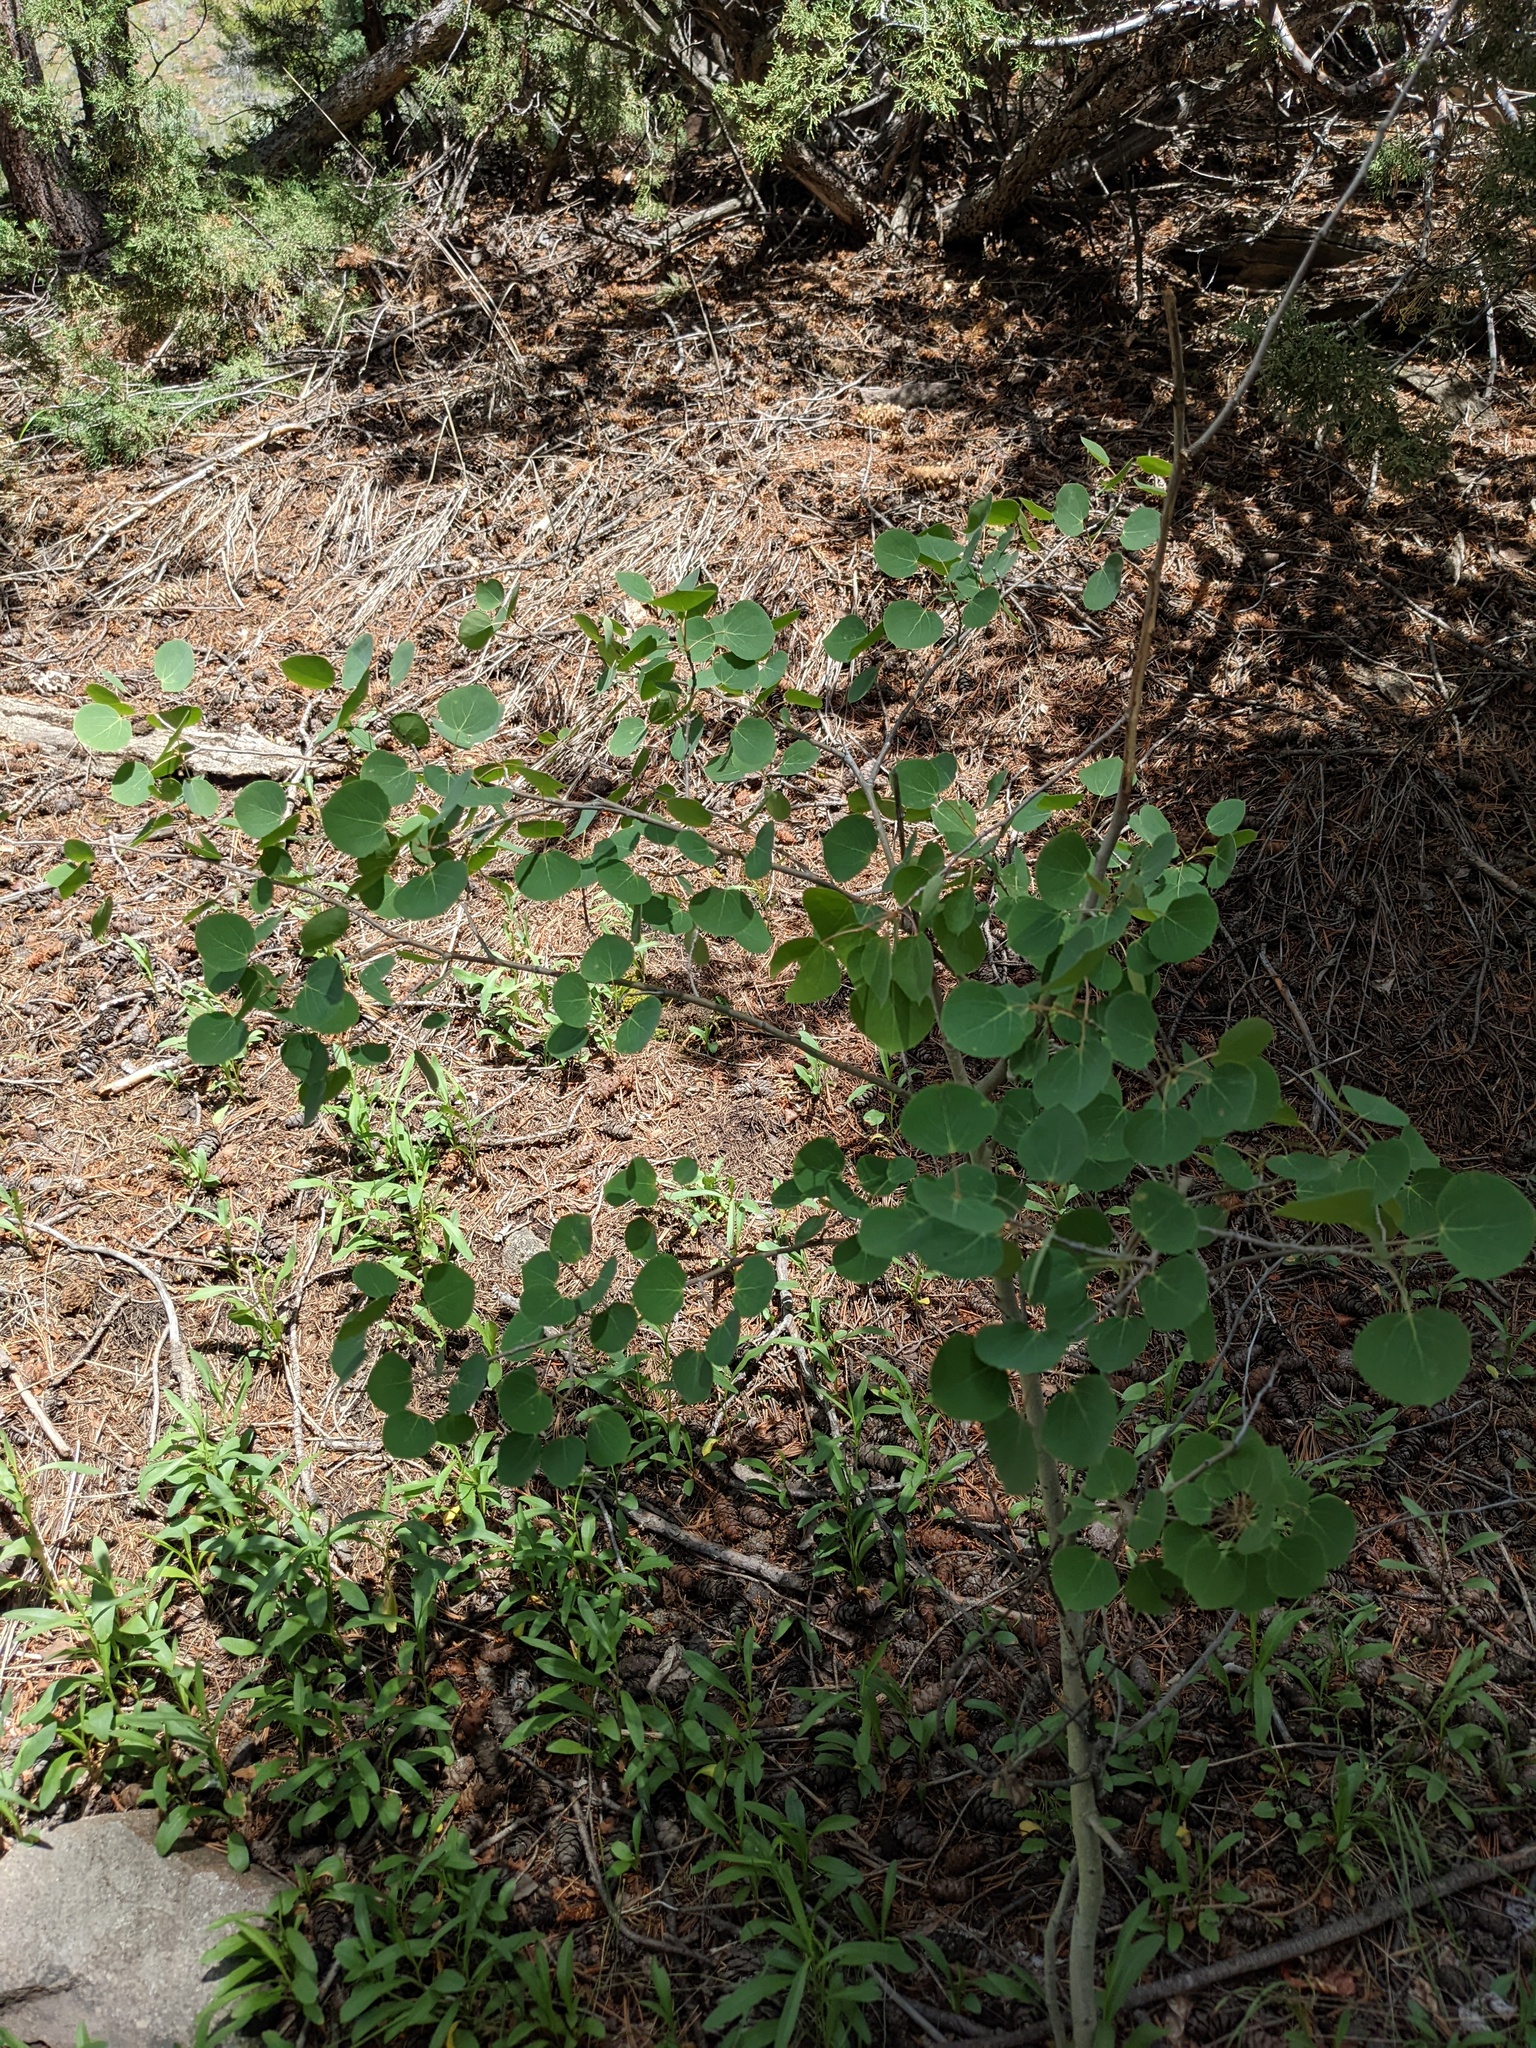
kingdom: Plantae
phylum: Tracheophyta
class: Magnoliopsida
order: Malpighiales
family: Salicaceae
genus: Populus
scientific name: Populus tremuloides
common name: Quaking aspen
